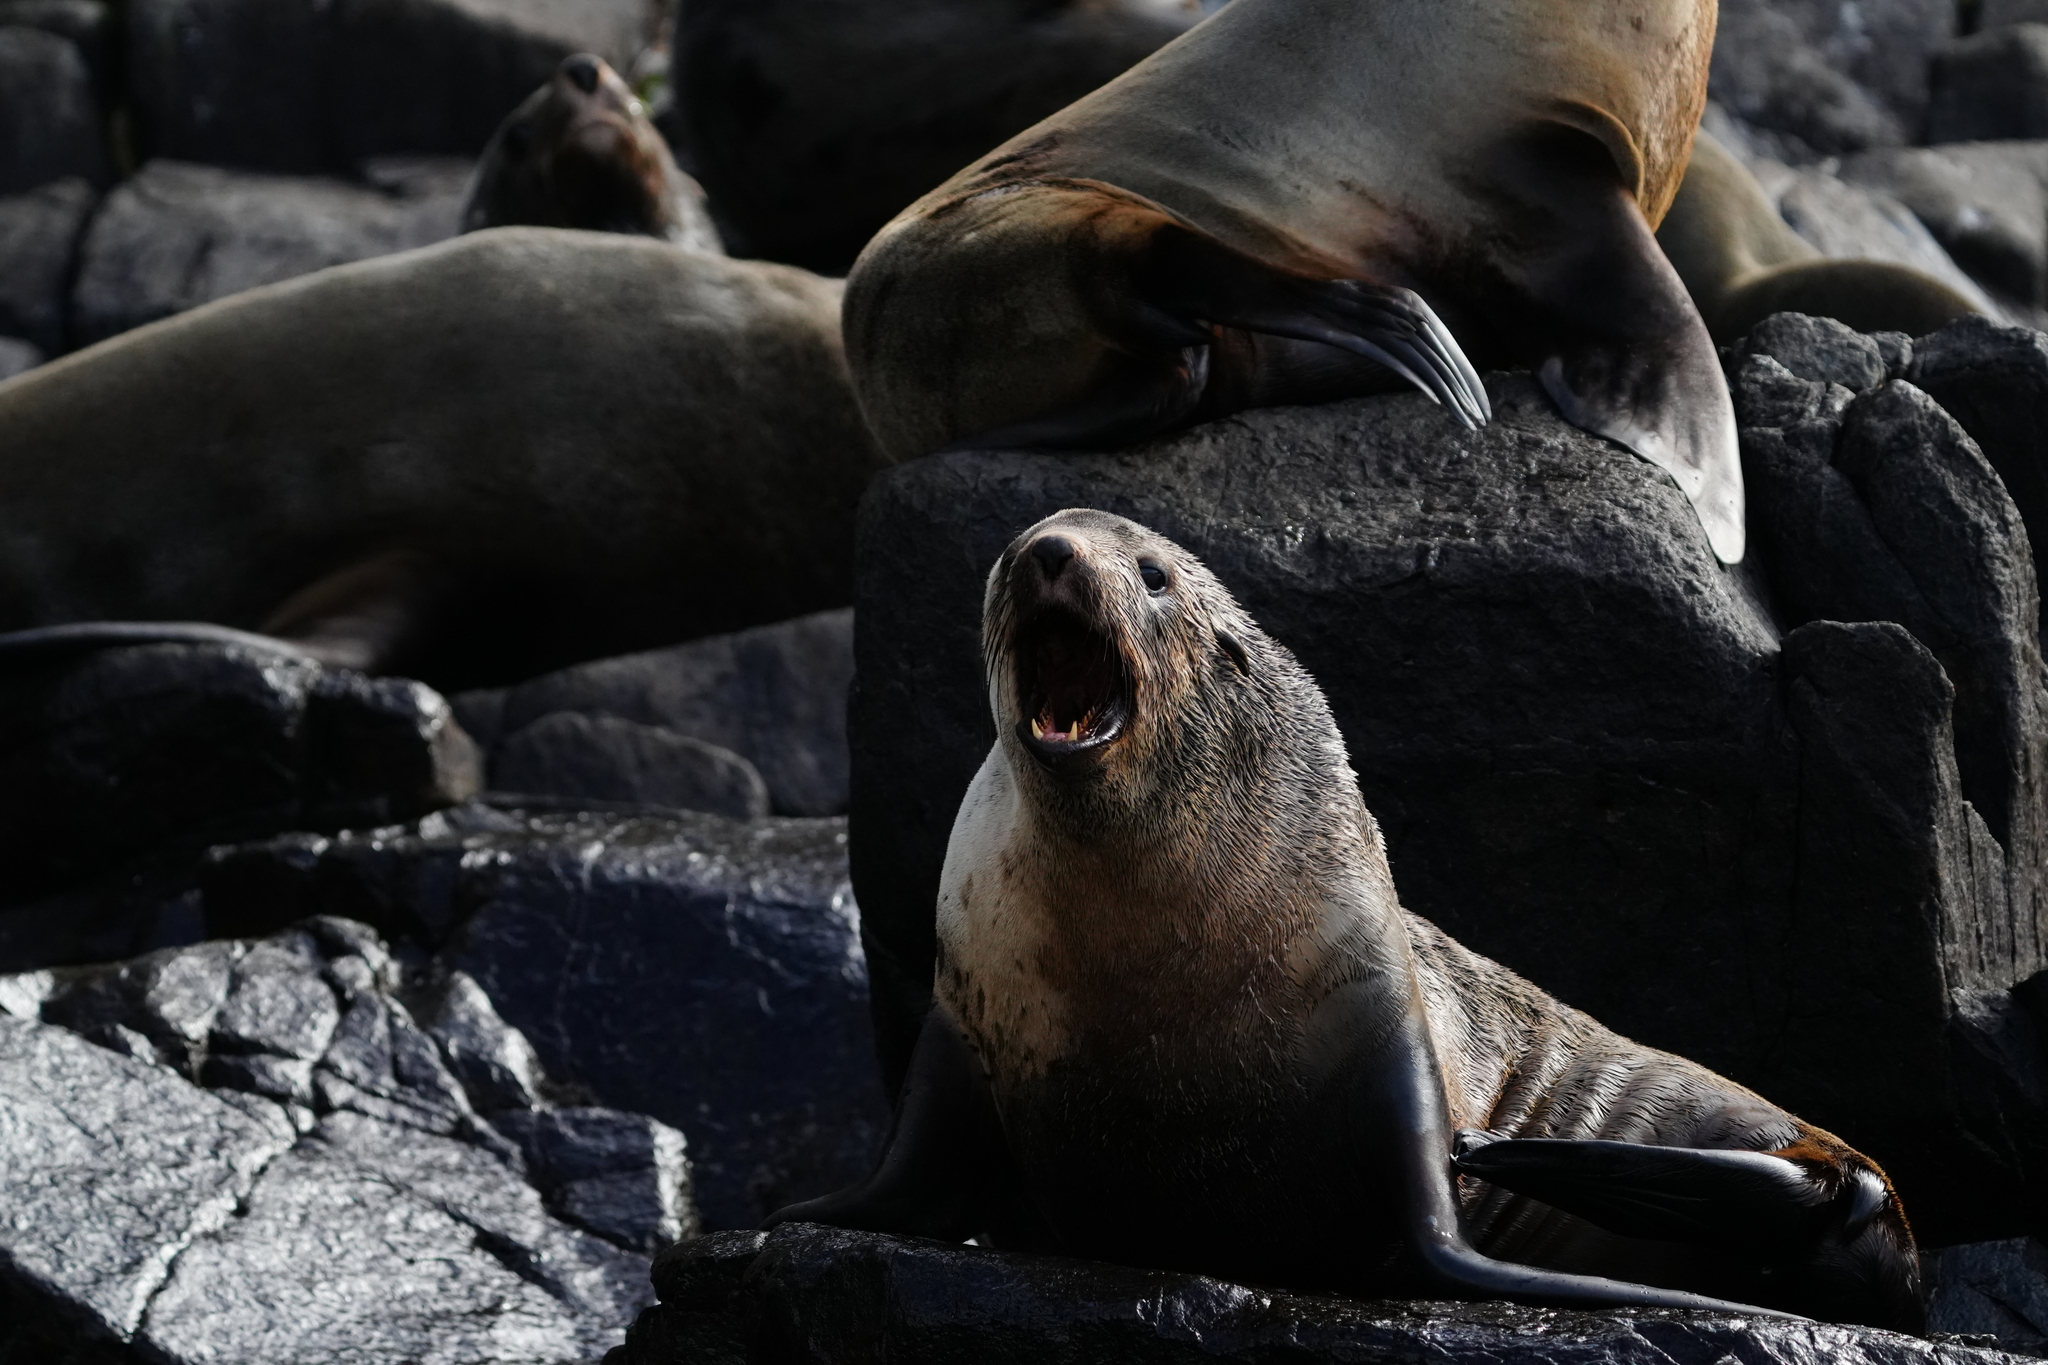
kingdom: Animalia
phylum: Chordata
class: Mammalia
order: Carnivora
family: Otariidae
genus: Arctocephalus
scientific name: Arctocephalus pusillus
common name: Brown fur seal
